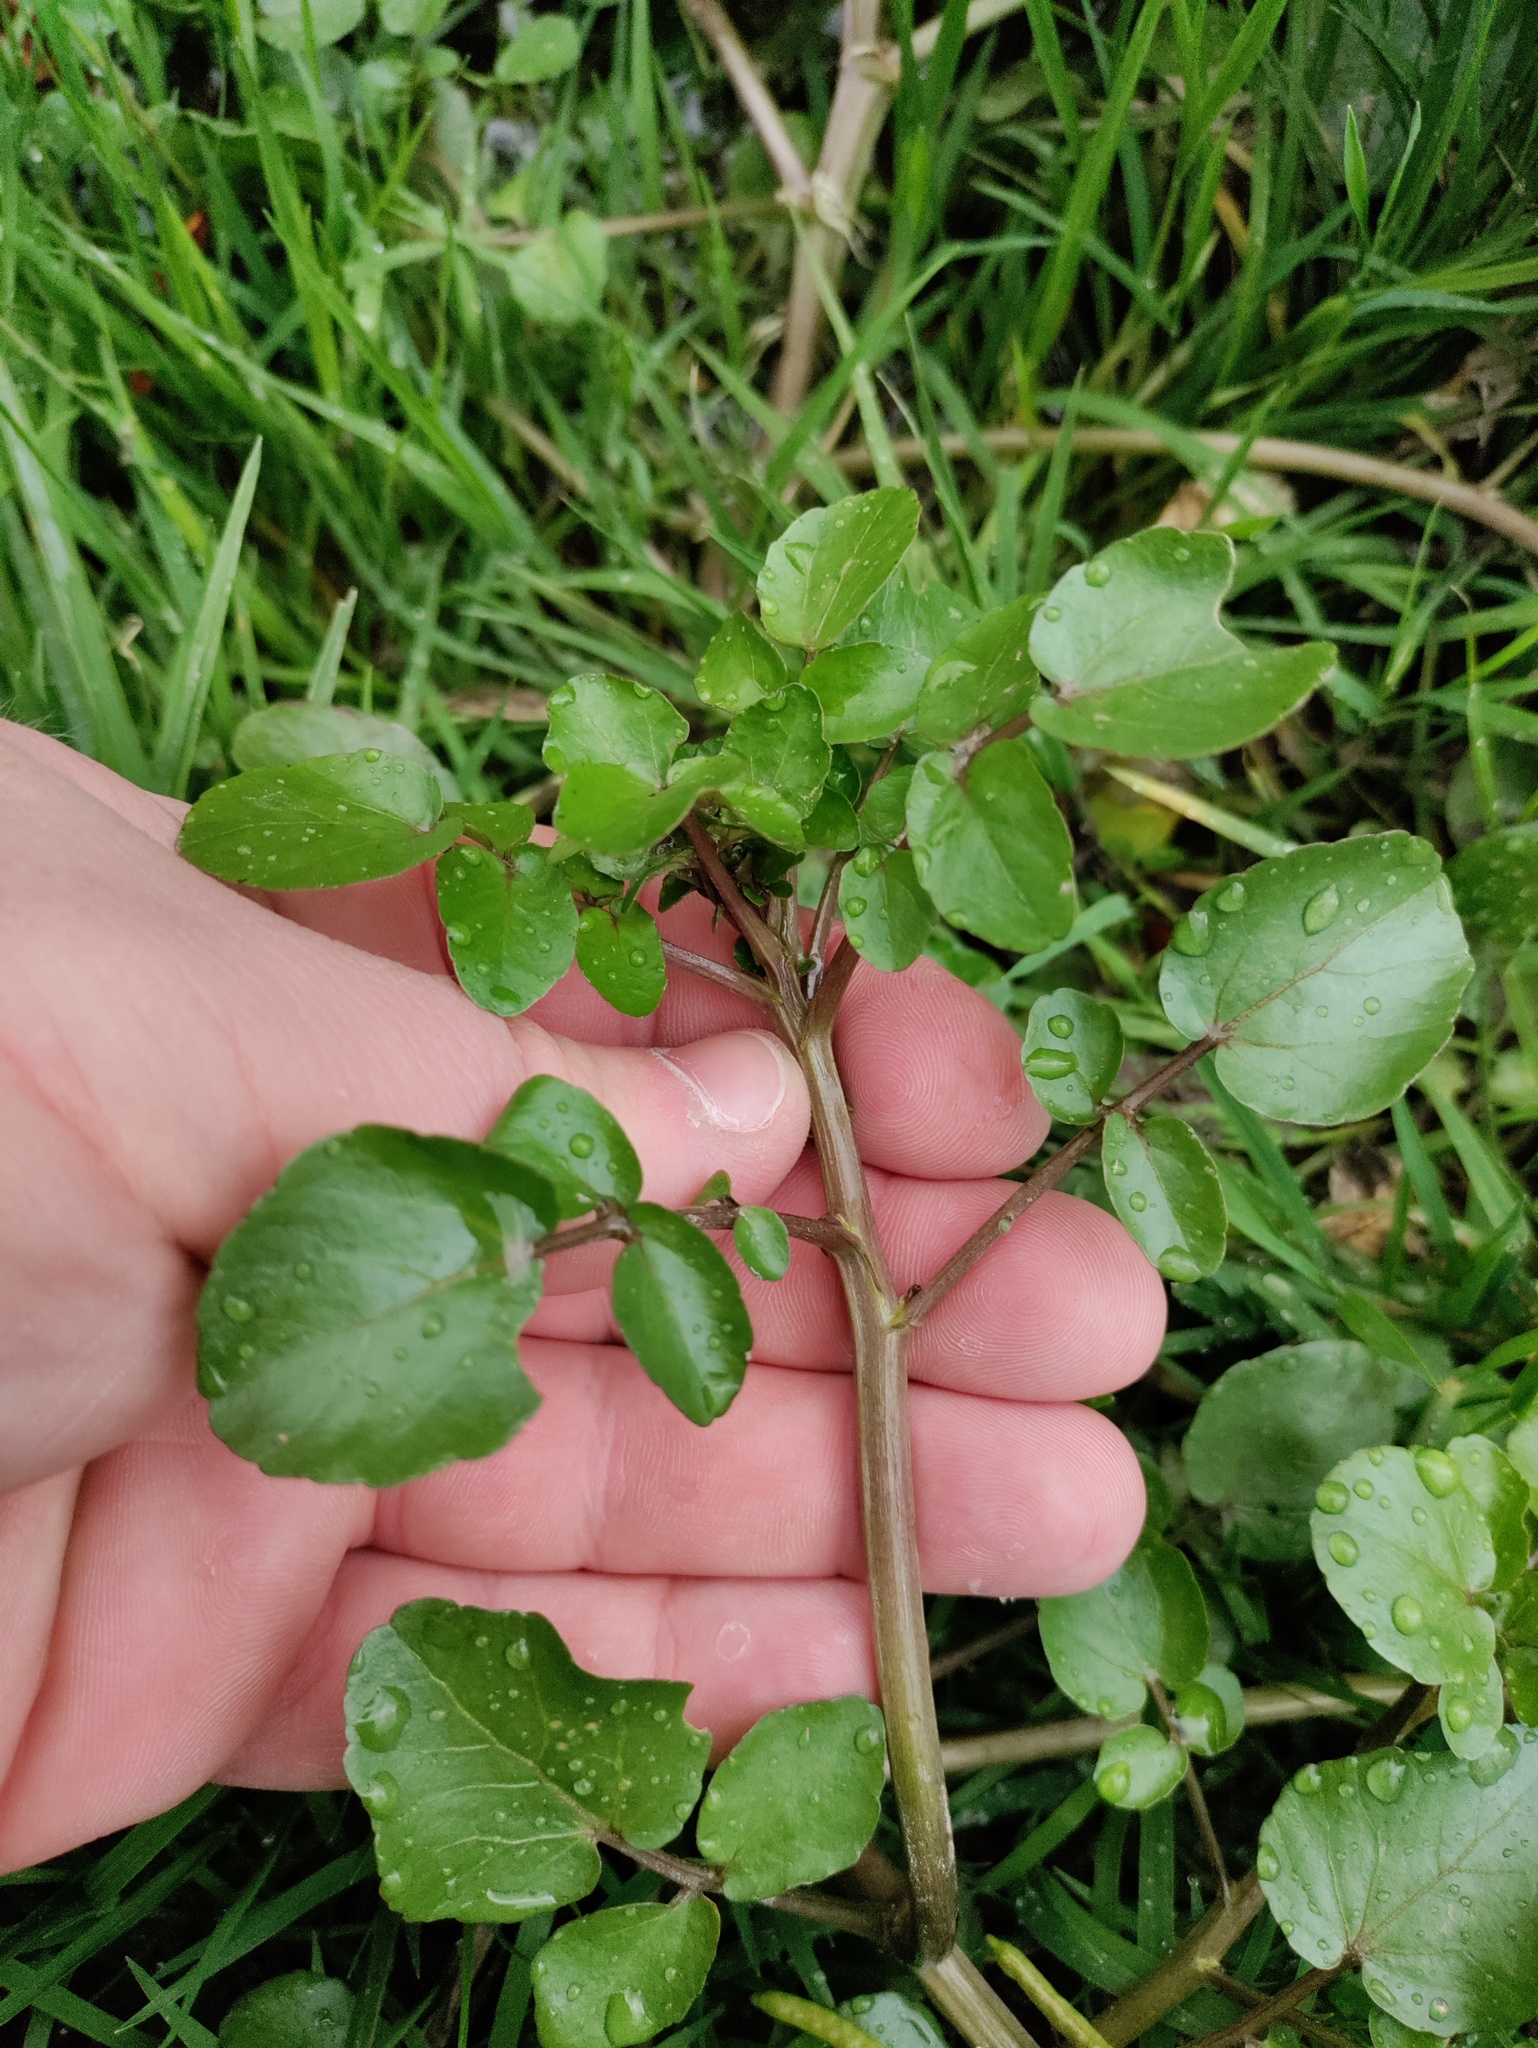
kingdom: Plantae
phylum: Tracheophyta
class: Magnoliopsida
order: Brassicales
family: Brassicaceae
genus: Nasturtium
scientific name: Nasturtium officinale
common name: Watercress
